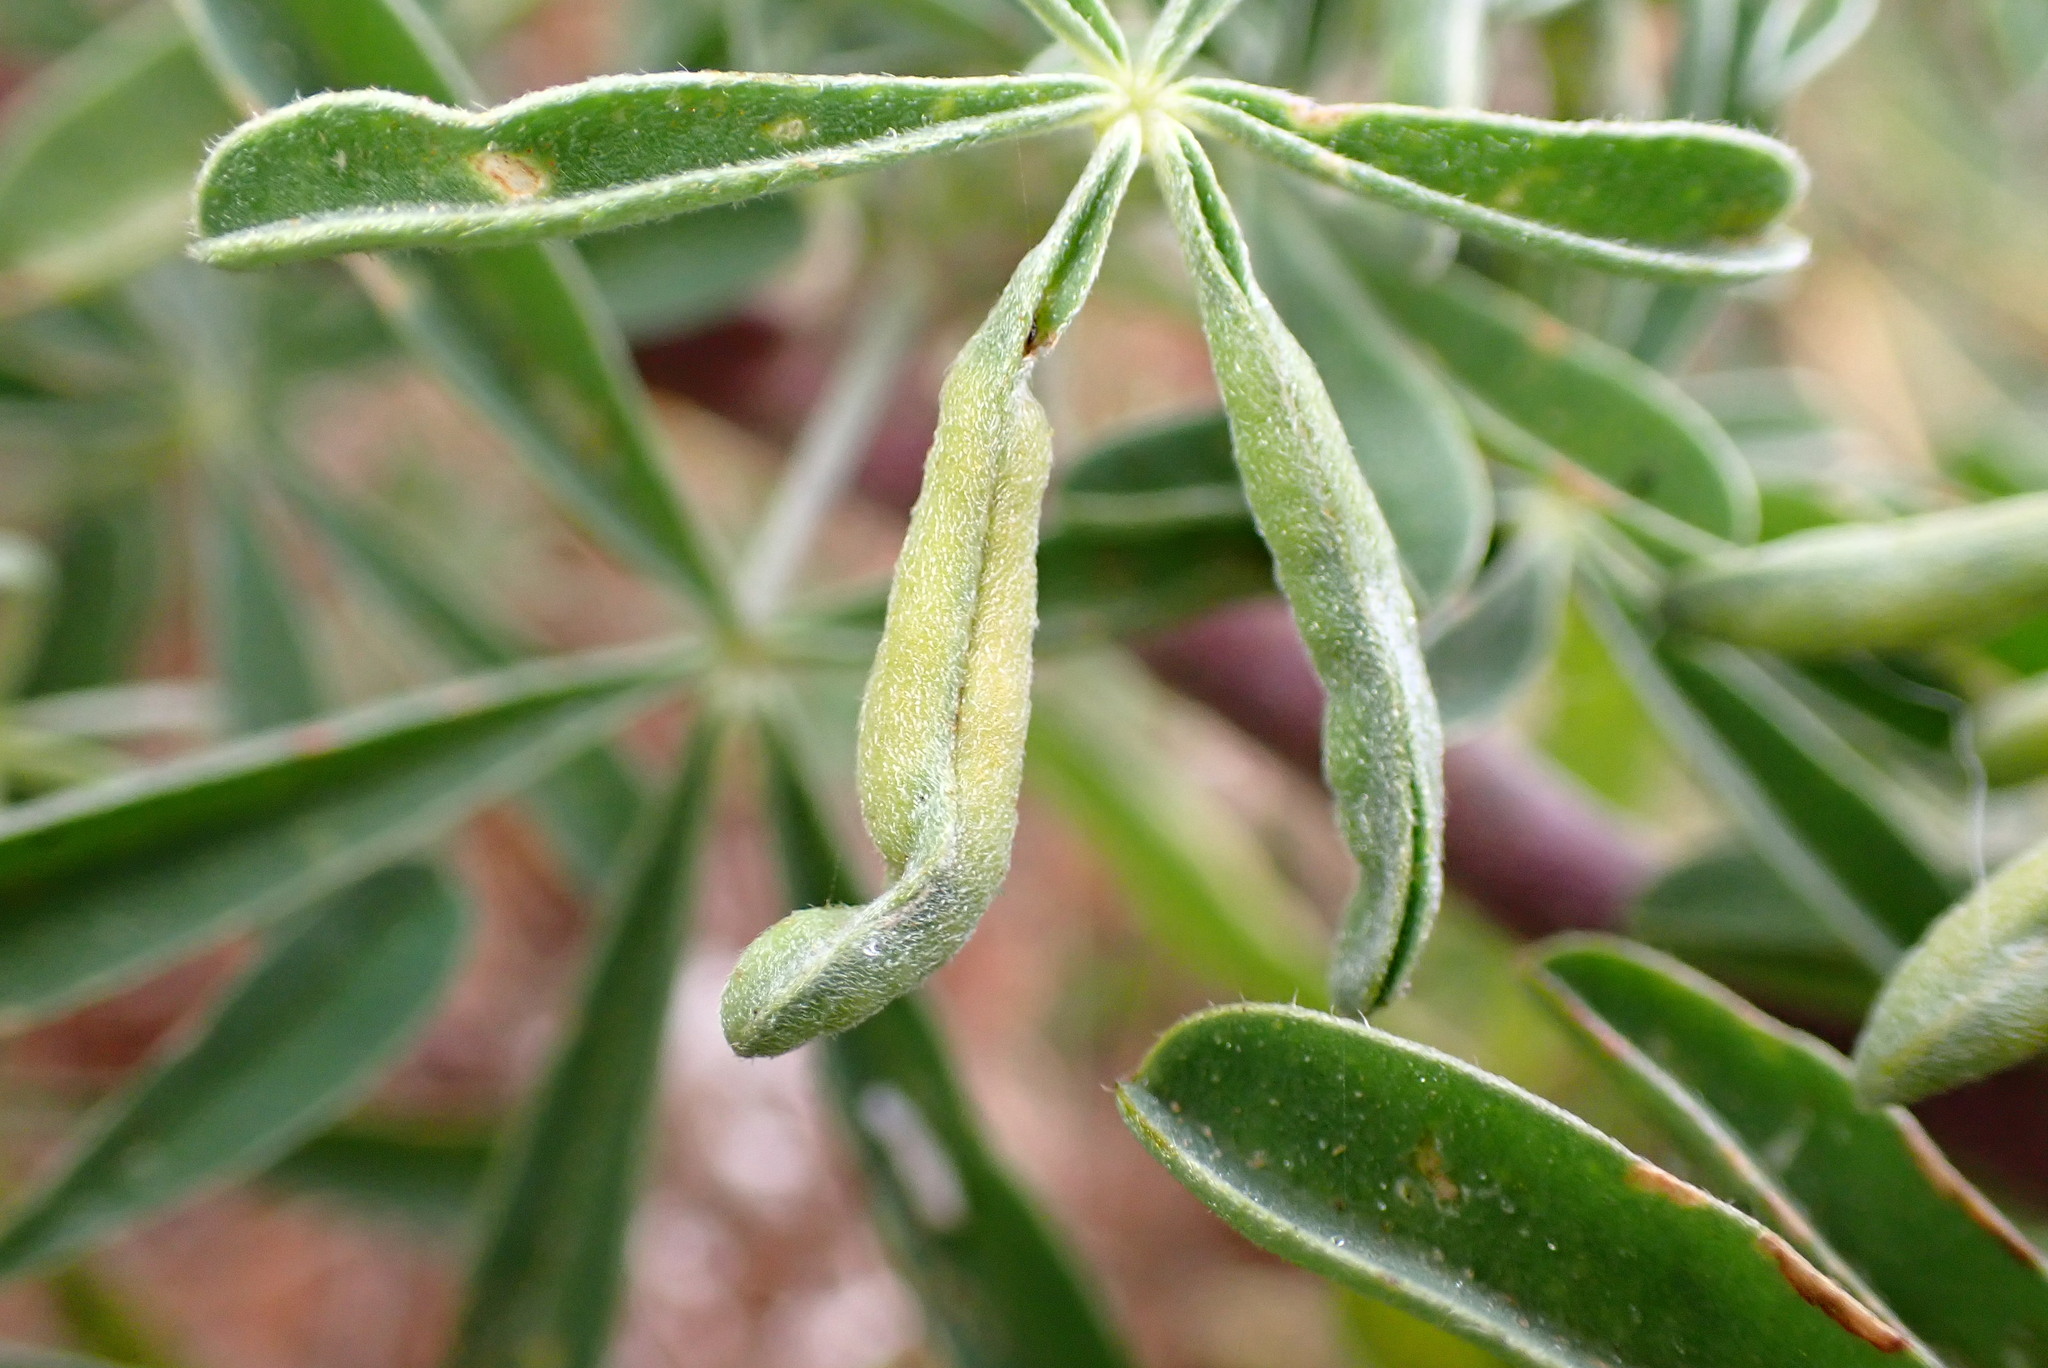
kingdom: Animalia
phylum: Arthropoda
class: Insecta
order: Diptera
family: Cecidomyiidae
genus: Dasineura
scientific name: Dasineura lupinorum
